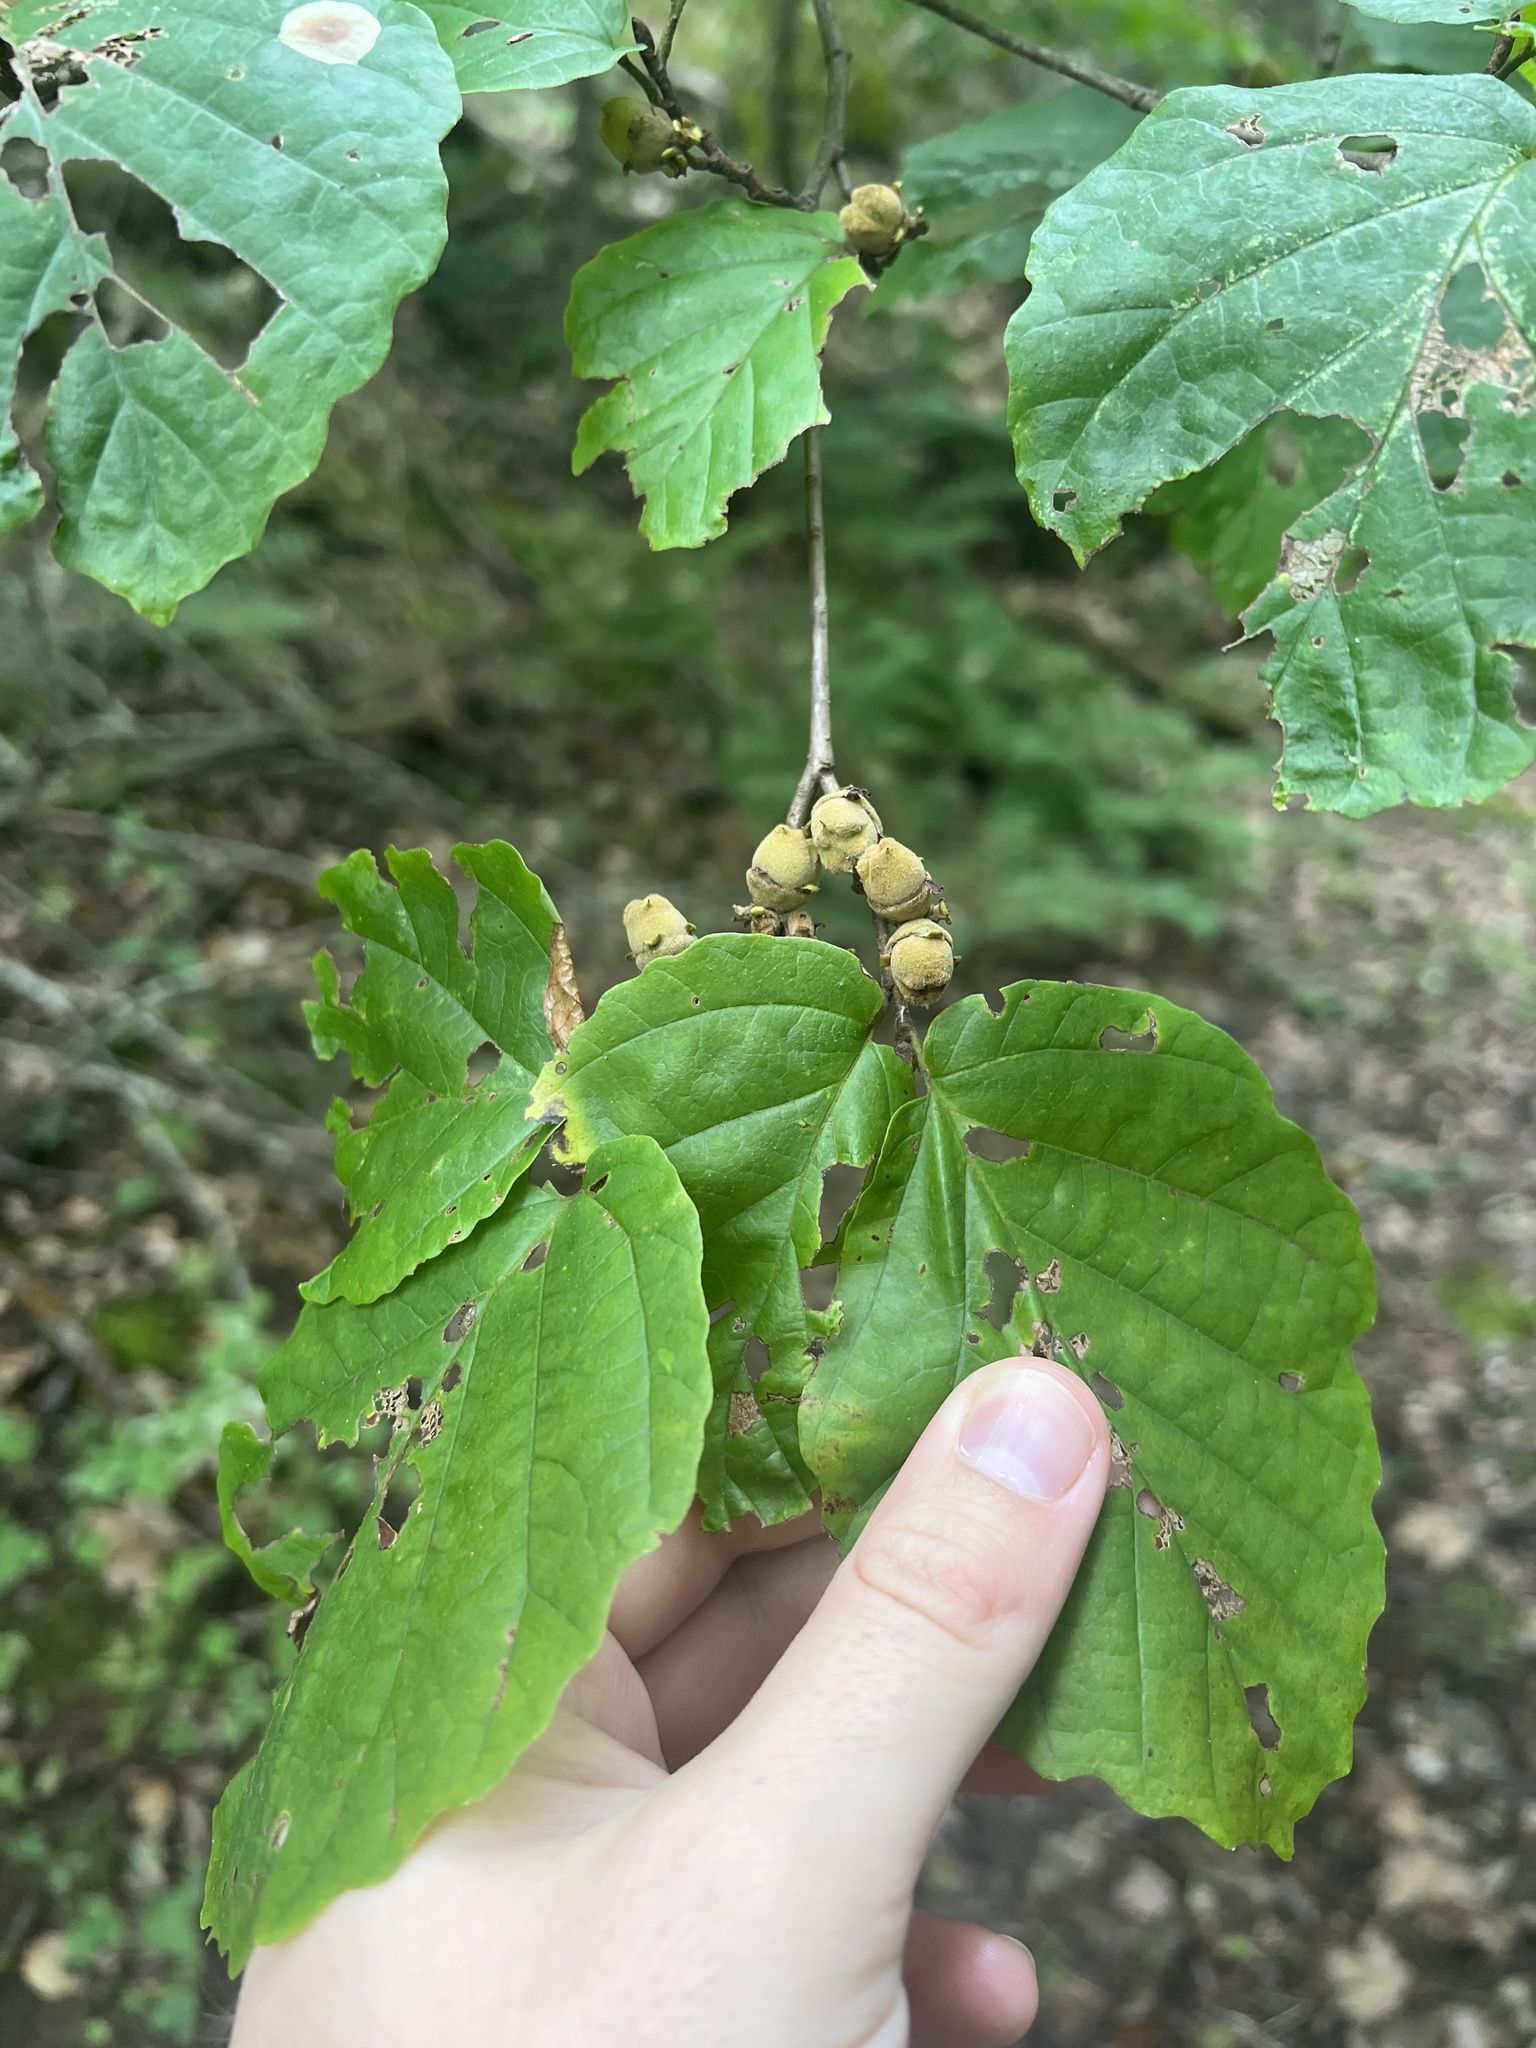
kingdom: Plantae
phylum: Tracheophyta
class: Magnoliopsida
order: Saxifragales
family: Hamamelidaceae
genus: Hamamelis
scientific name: Hamamelis virginiana
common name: Witch-hazel
